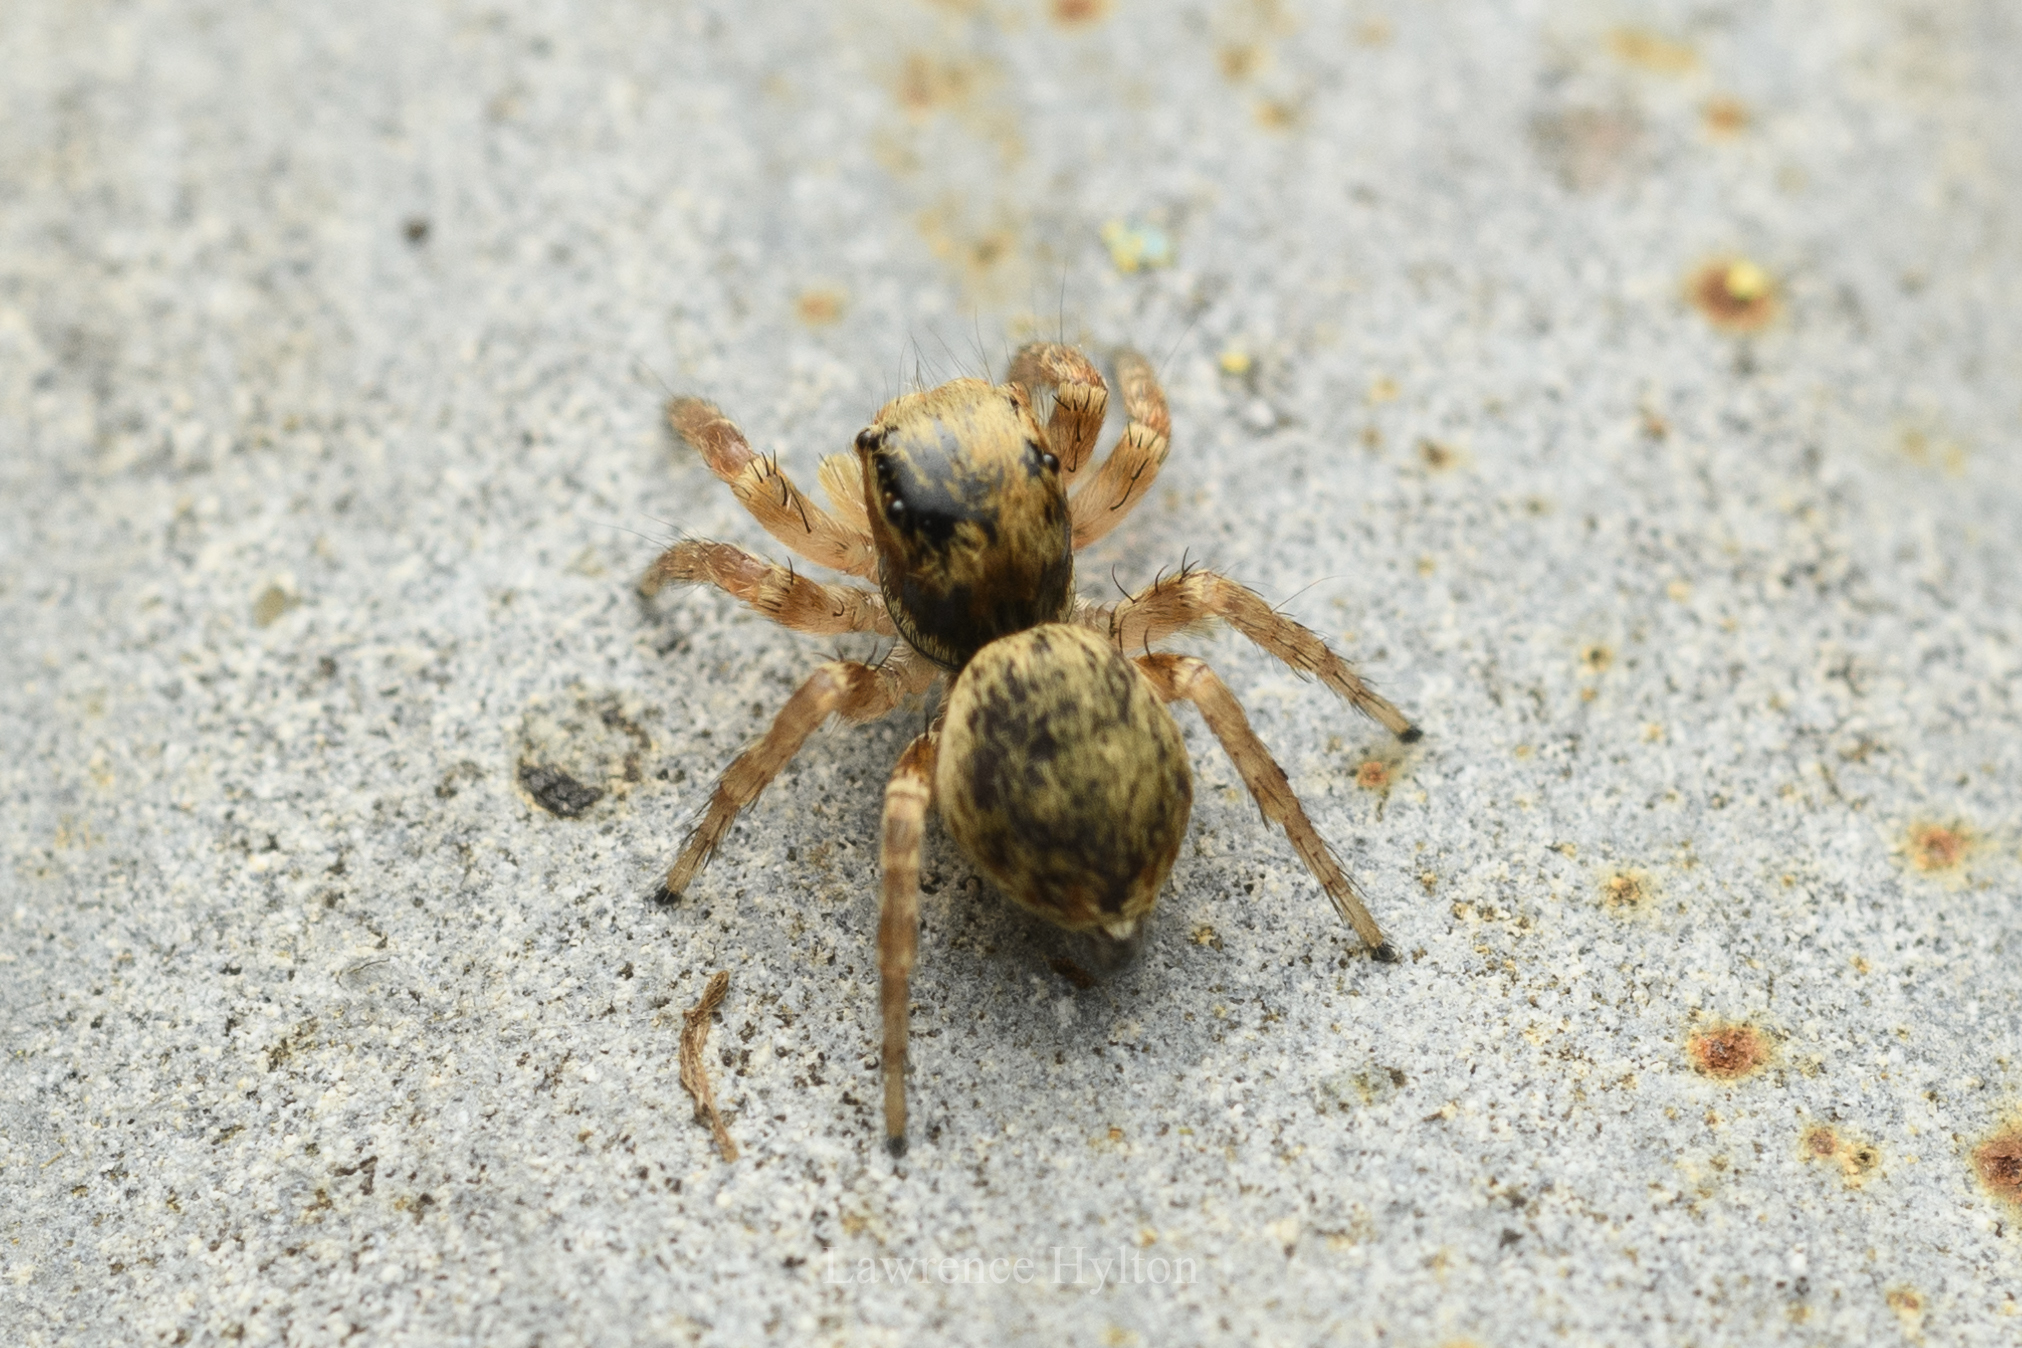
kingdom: Animalia
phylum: Arthropoda
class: Arachnida
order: Araneae
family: Salticidae
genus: Carrhotus
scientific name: Carrhotus sannio
